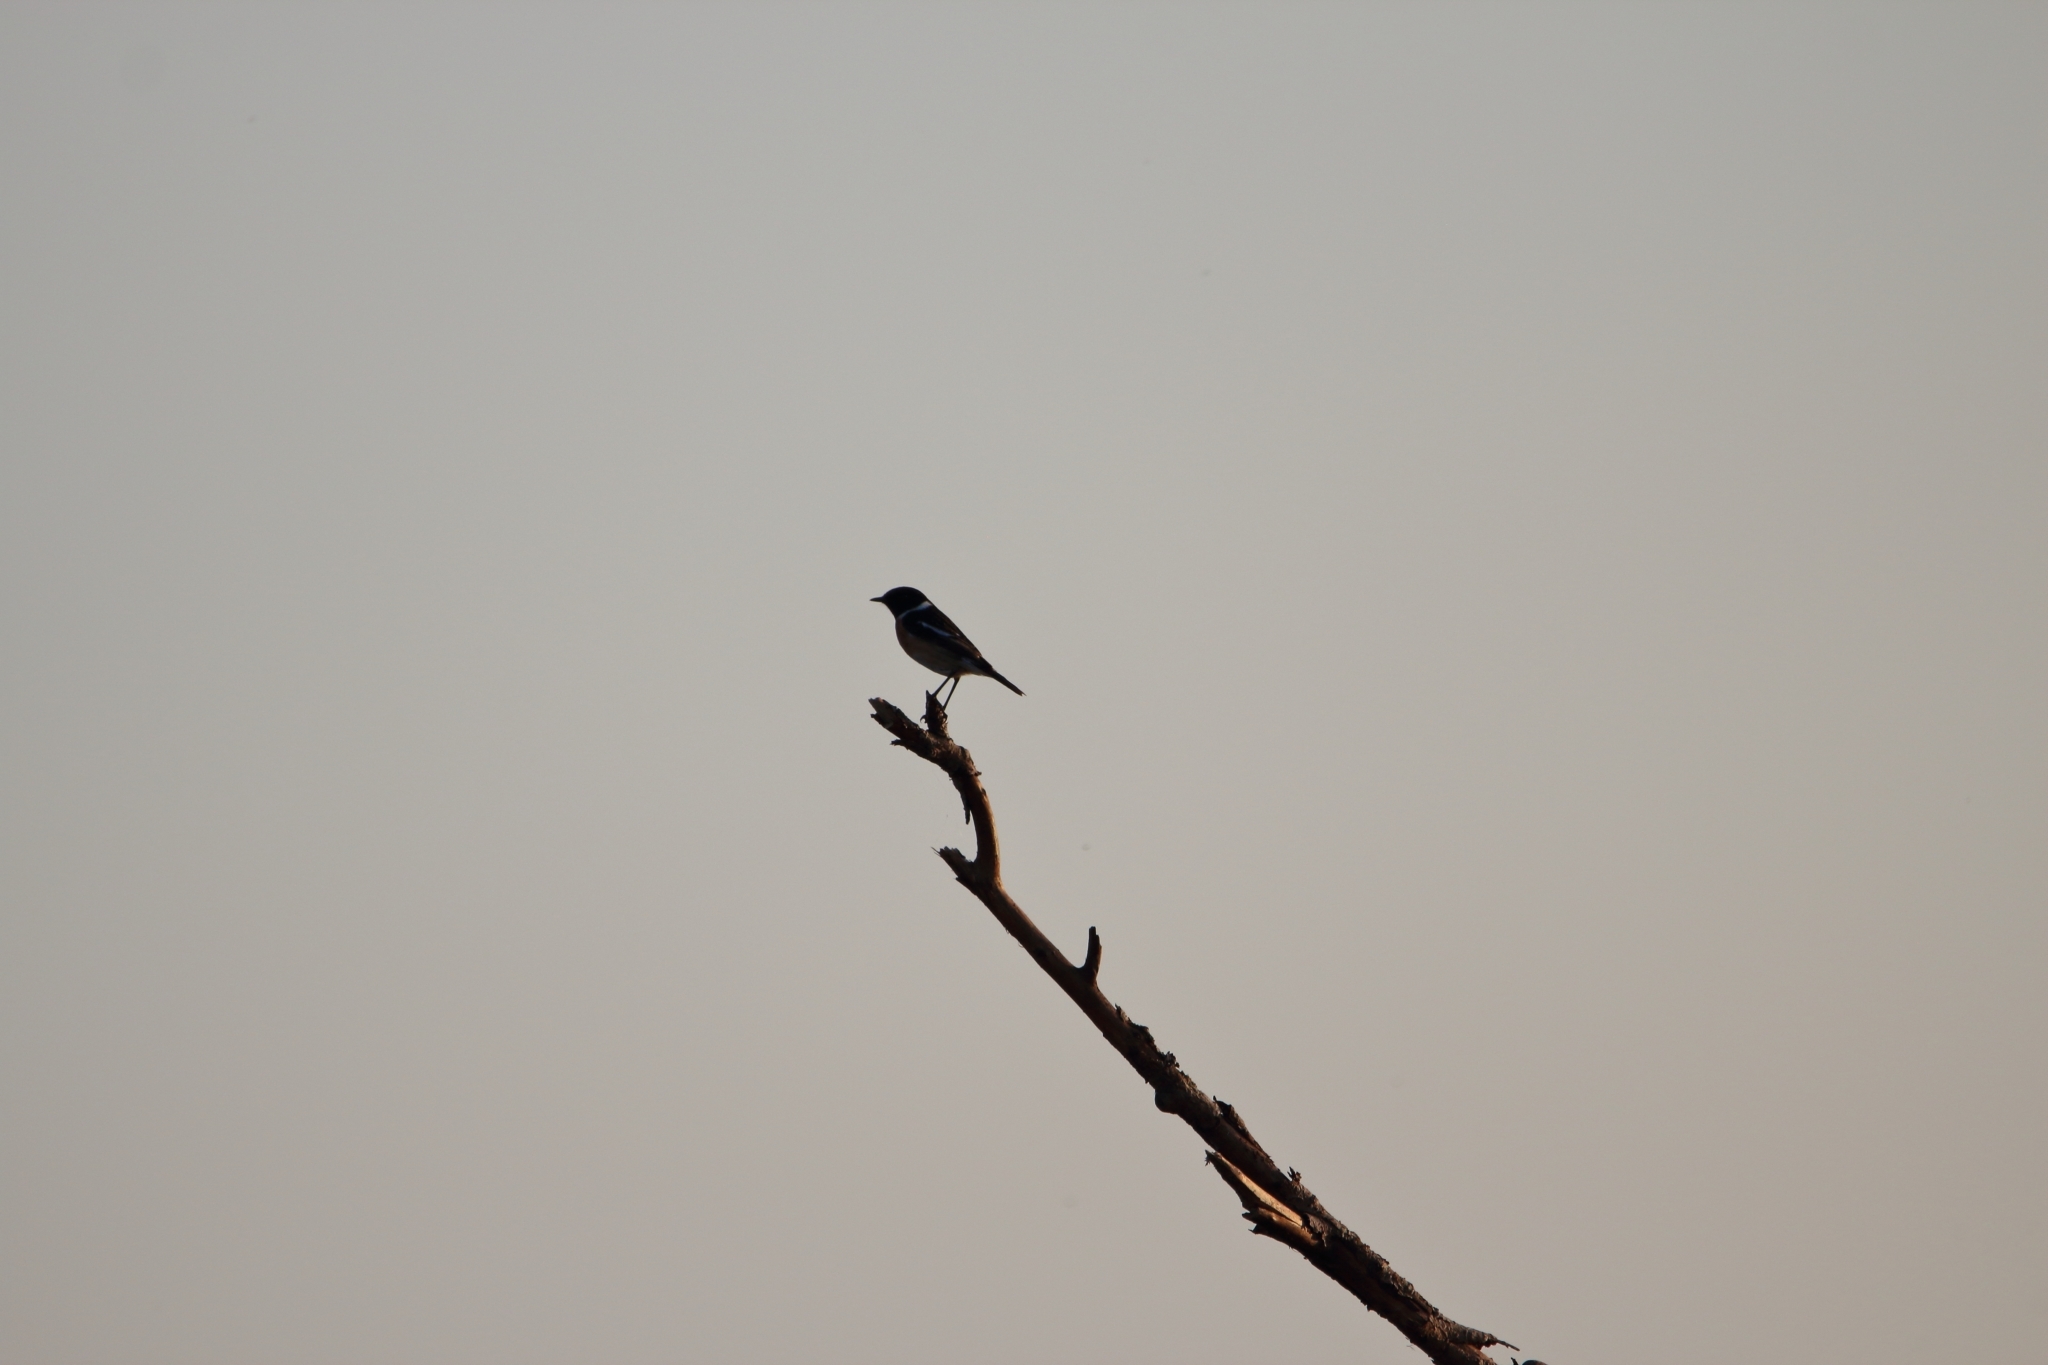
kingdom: Animalia
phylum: Chordata
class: Aves
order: Passeriformes
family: Muscicapidae
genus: Saxicola
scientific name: Saxicola rubicola
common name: European stonechat
